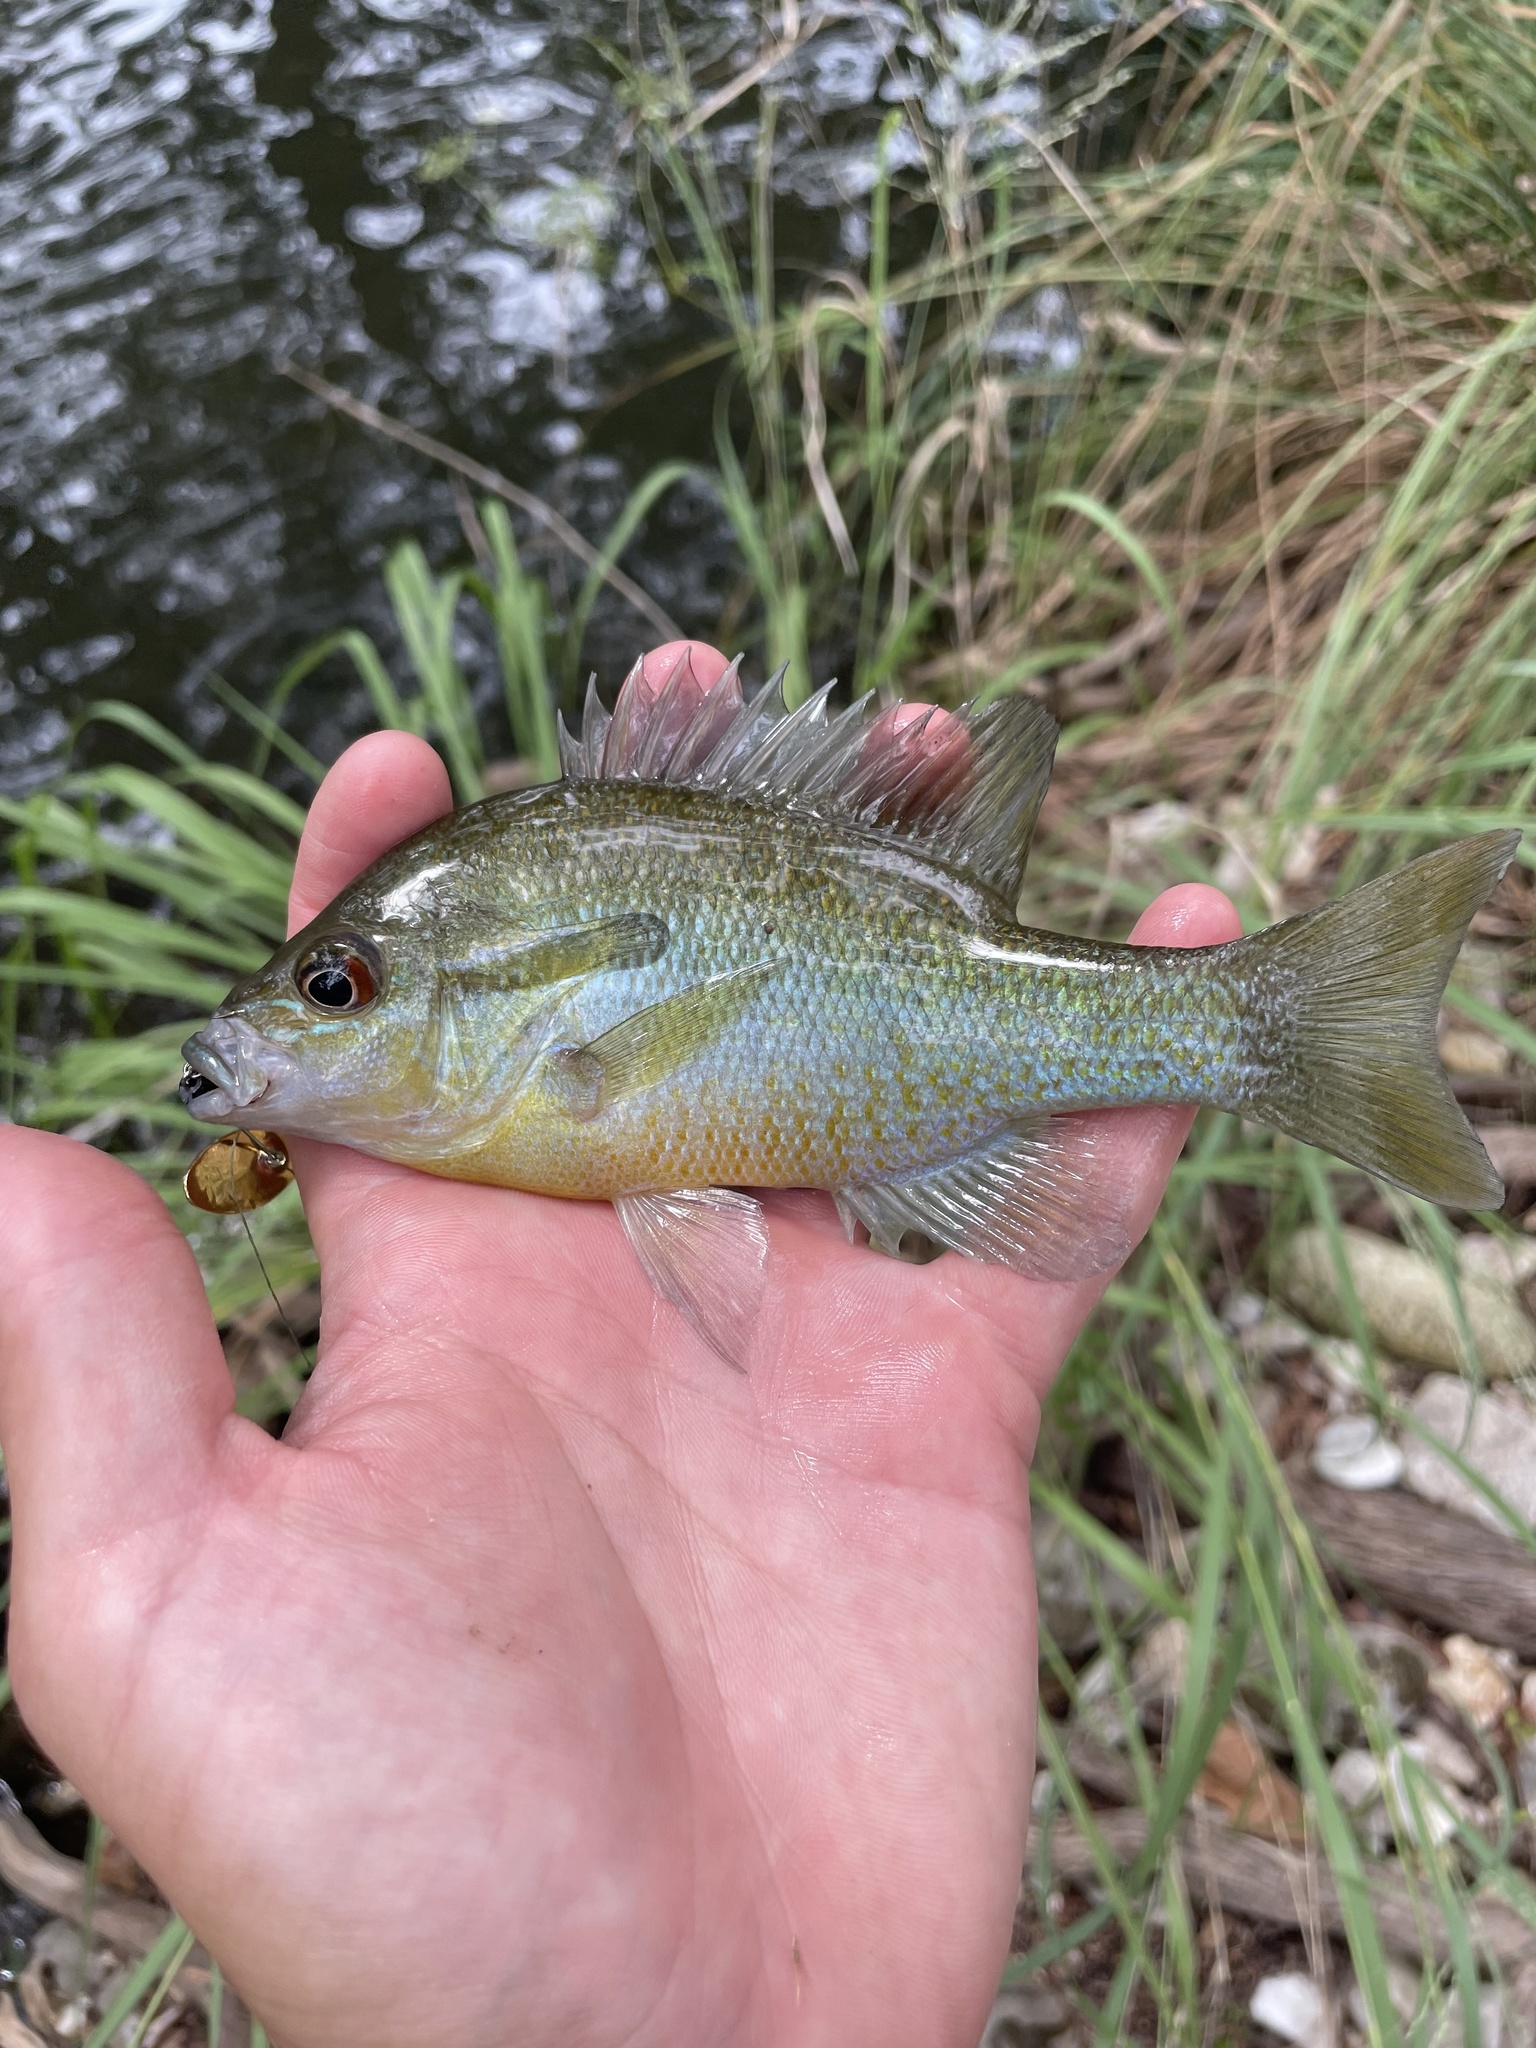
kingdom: Animalia
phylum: Chordata
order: Perciformes
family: Centrarchidae
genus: Lepomis
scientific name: Lepomis auritus
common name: Redbreast sunfish
